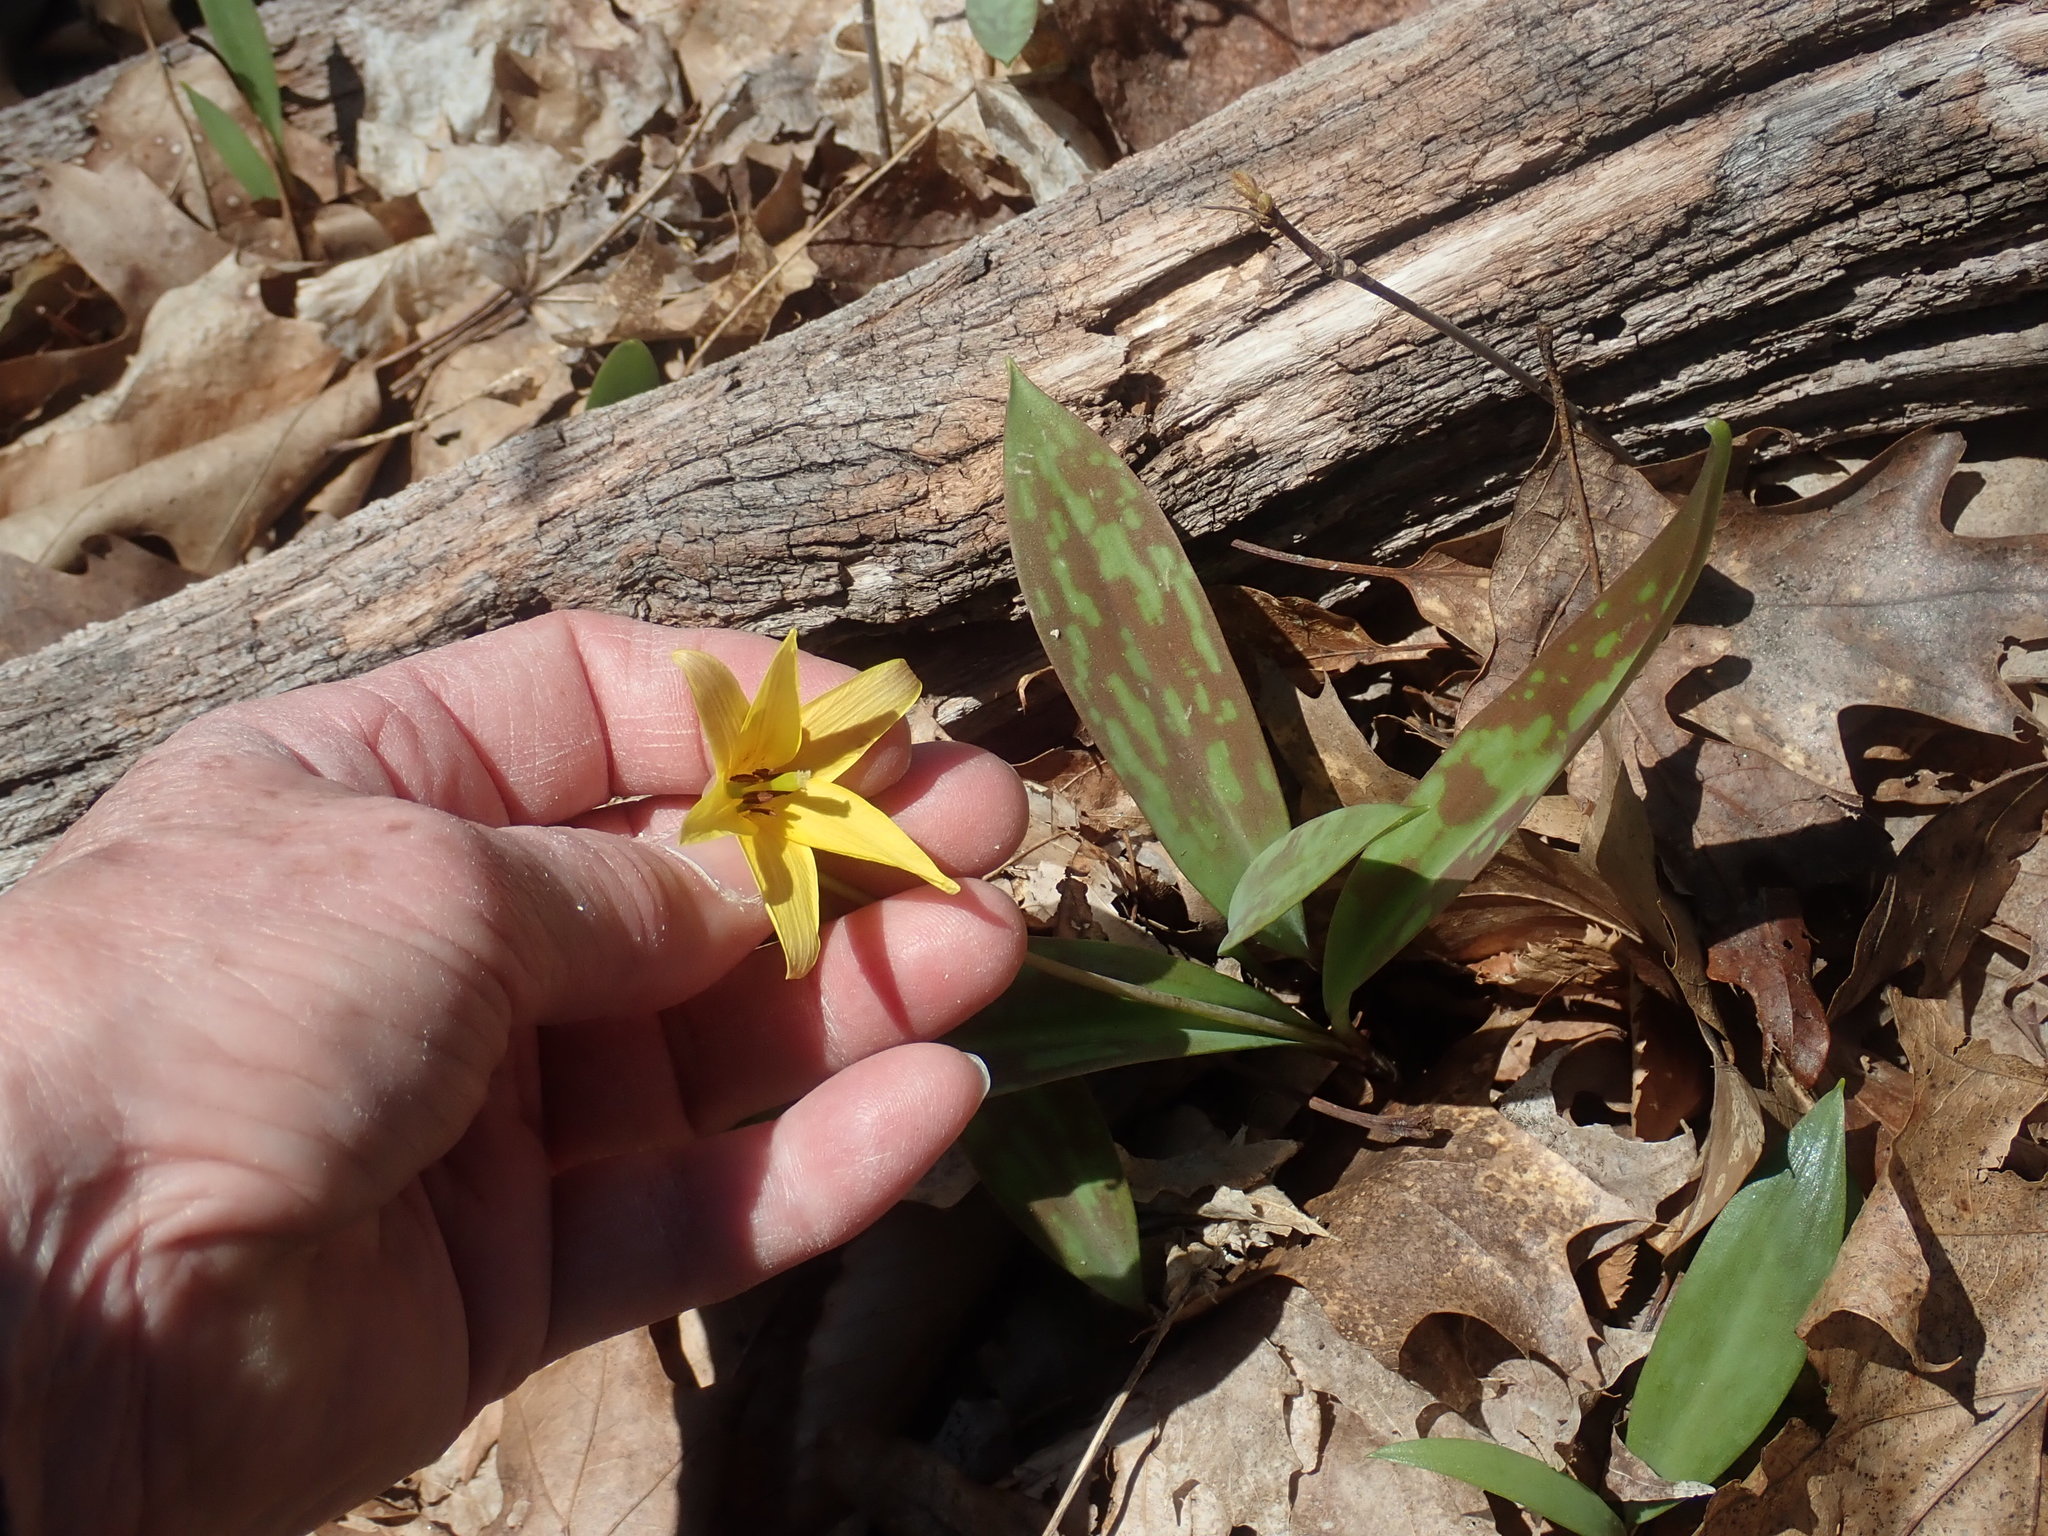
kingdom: Plantae
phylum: Tracheophyta
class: Liliopsida
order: Liliales
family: Liliaceae
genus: Erythronium
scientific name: Erythronium americanum
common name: Yellow adder's-tongue
